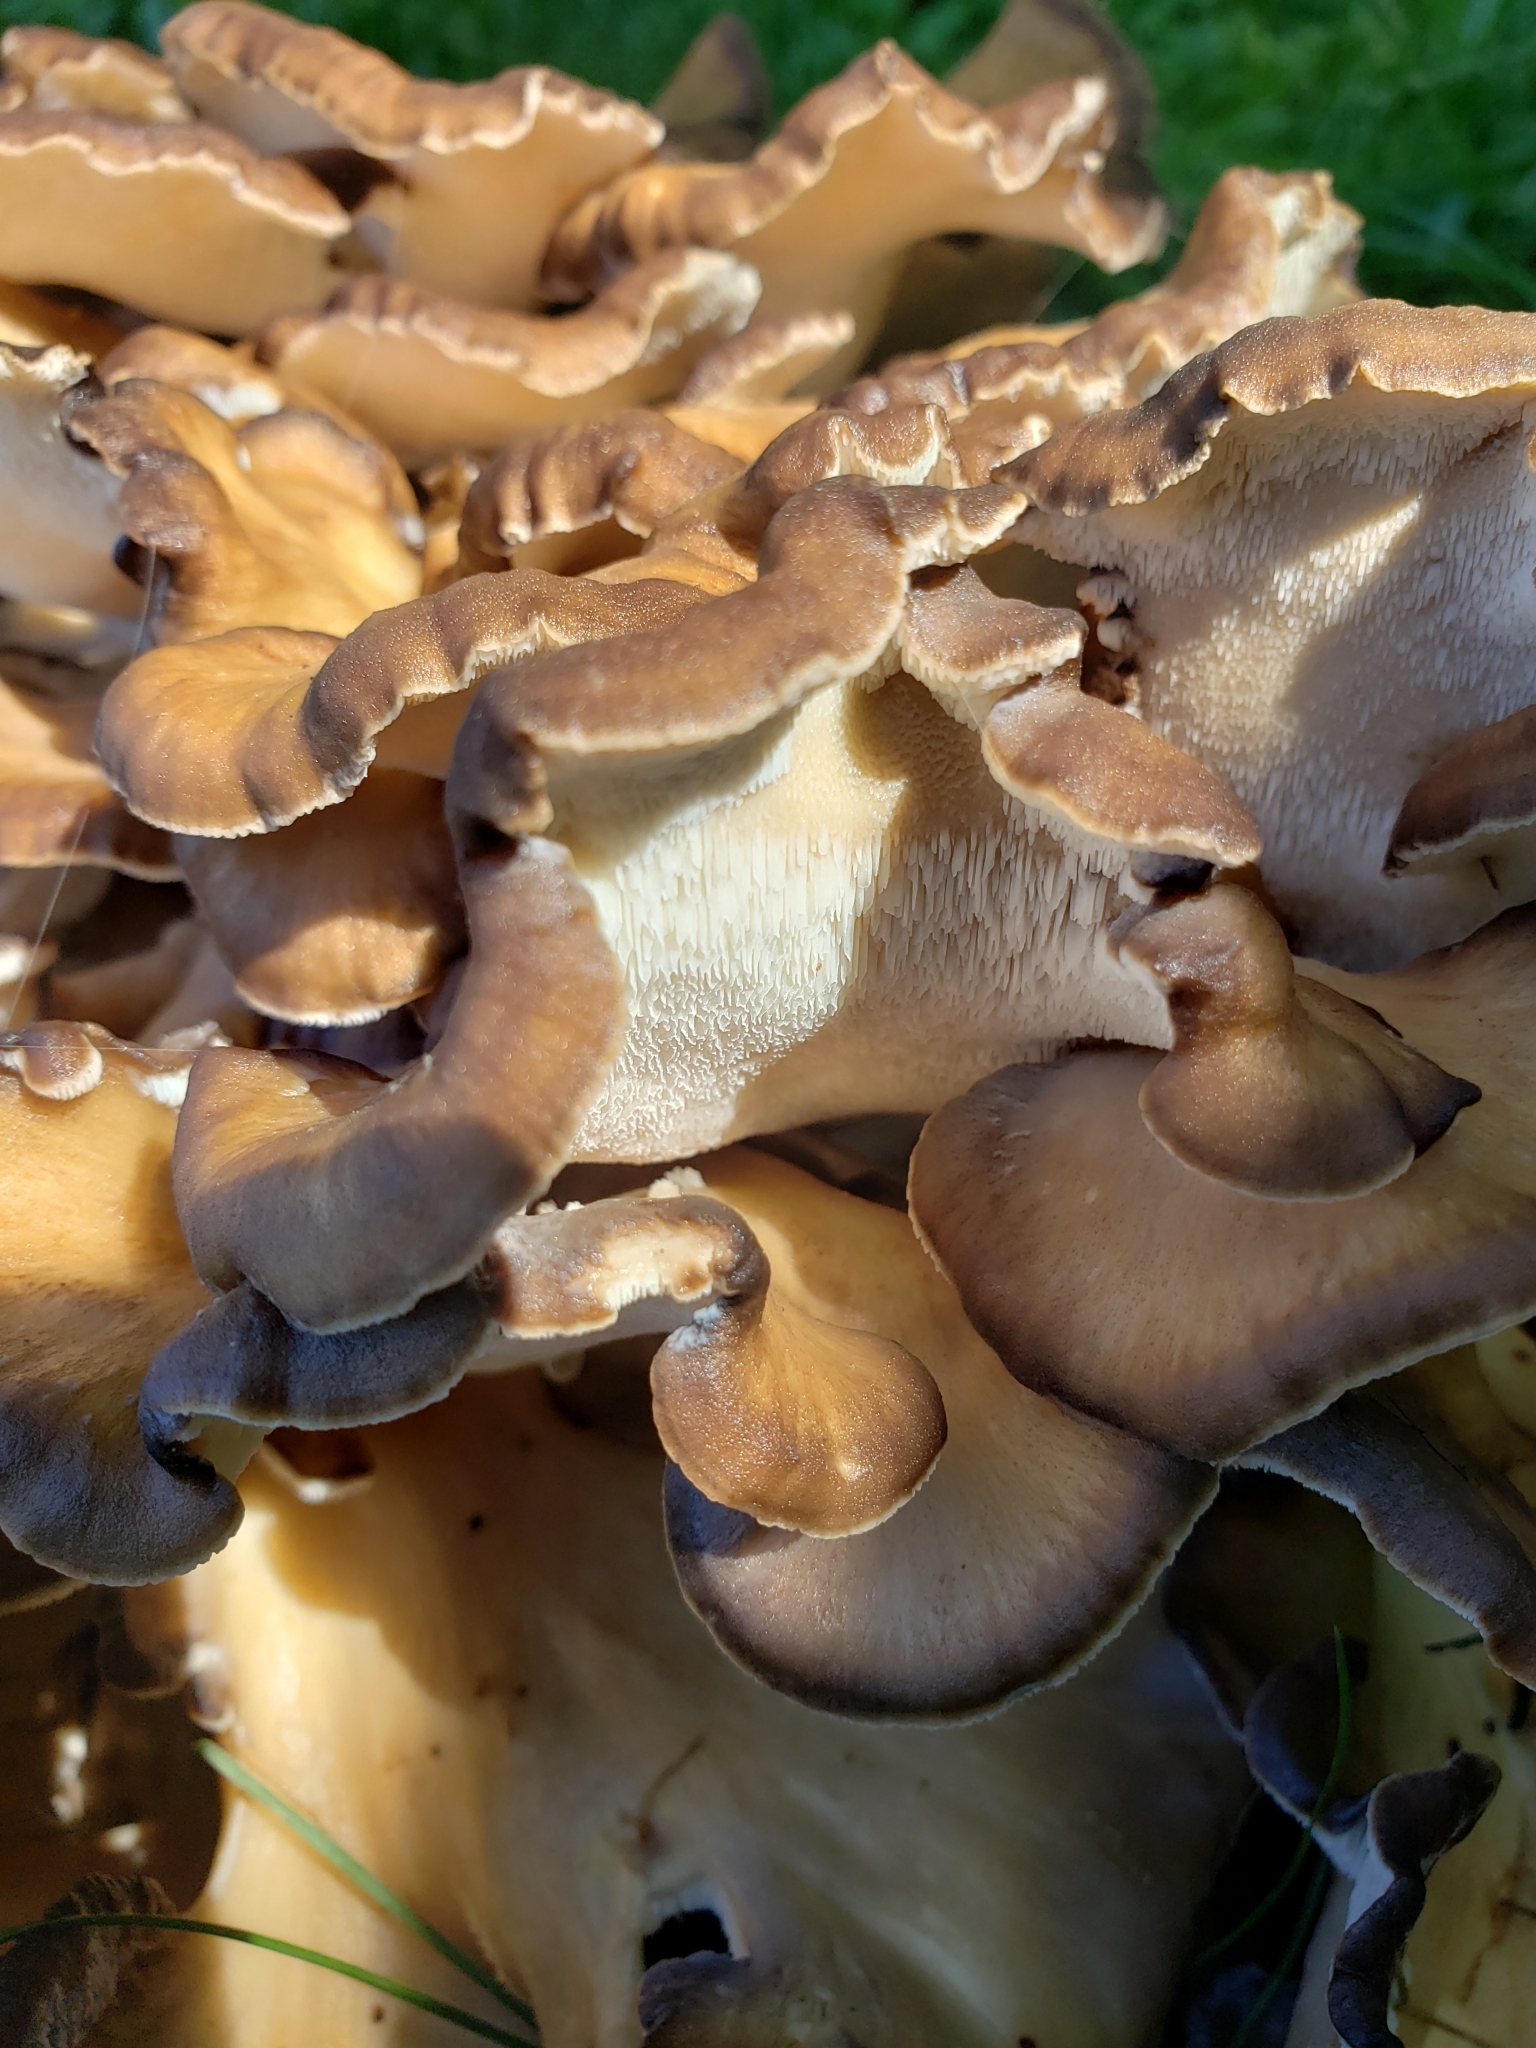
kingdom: Fungi
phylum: Basidiomycota
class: Agaricomycetes
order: Polyporales
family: Grifolaceae
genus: Grifola
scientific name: Grifola frondosa
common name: Hen of the woods
